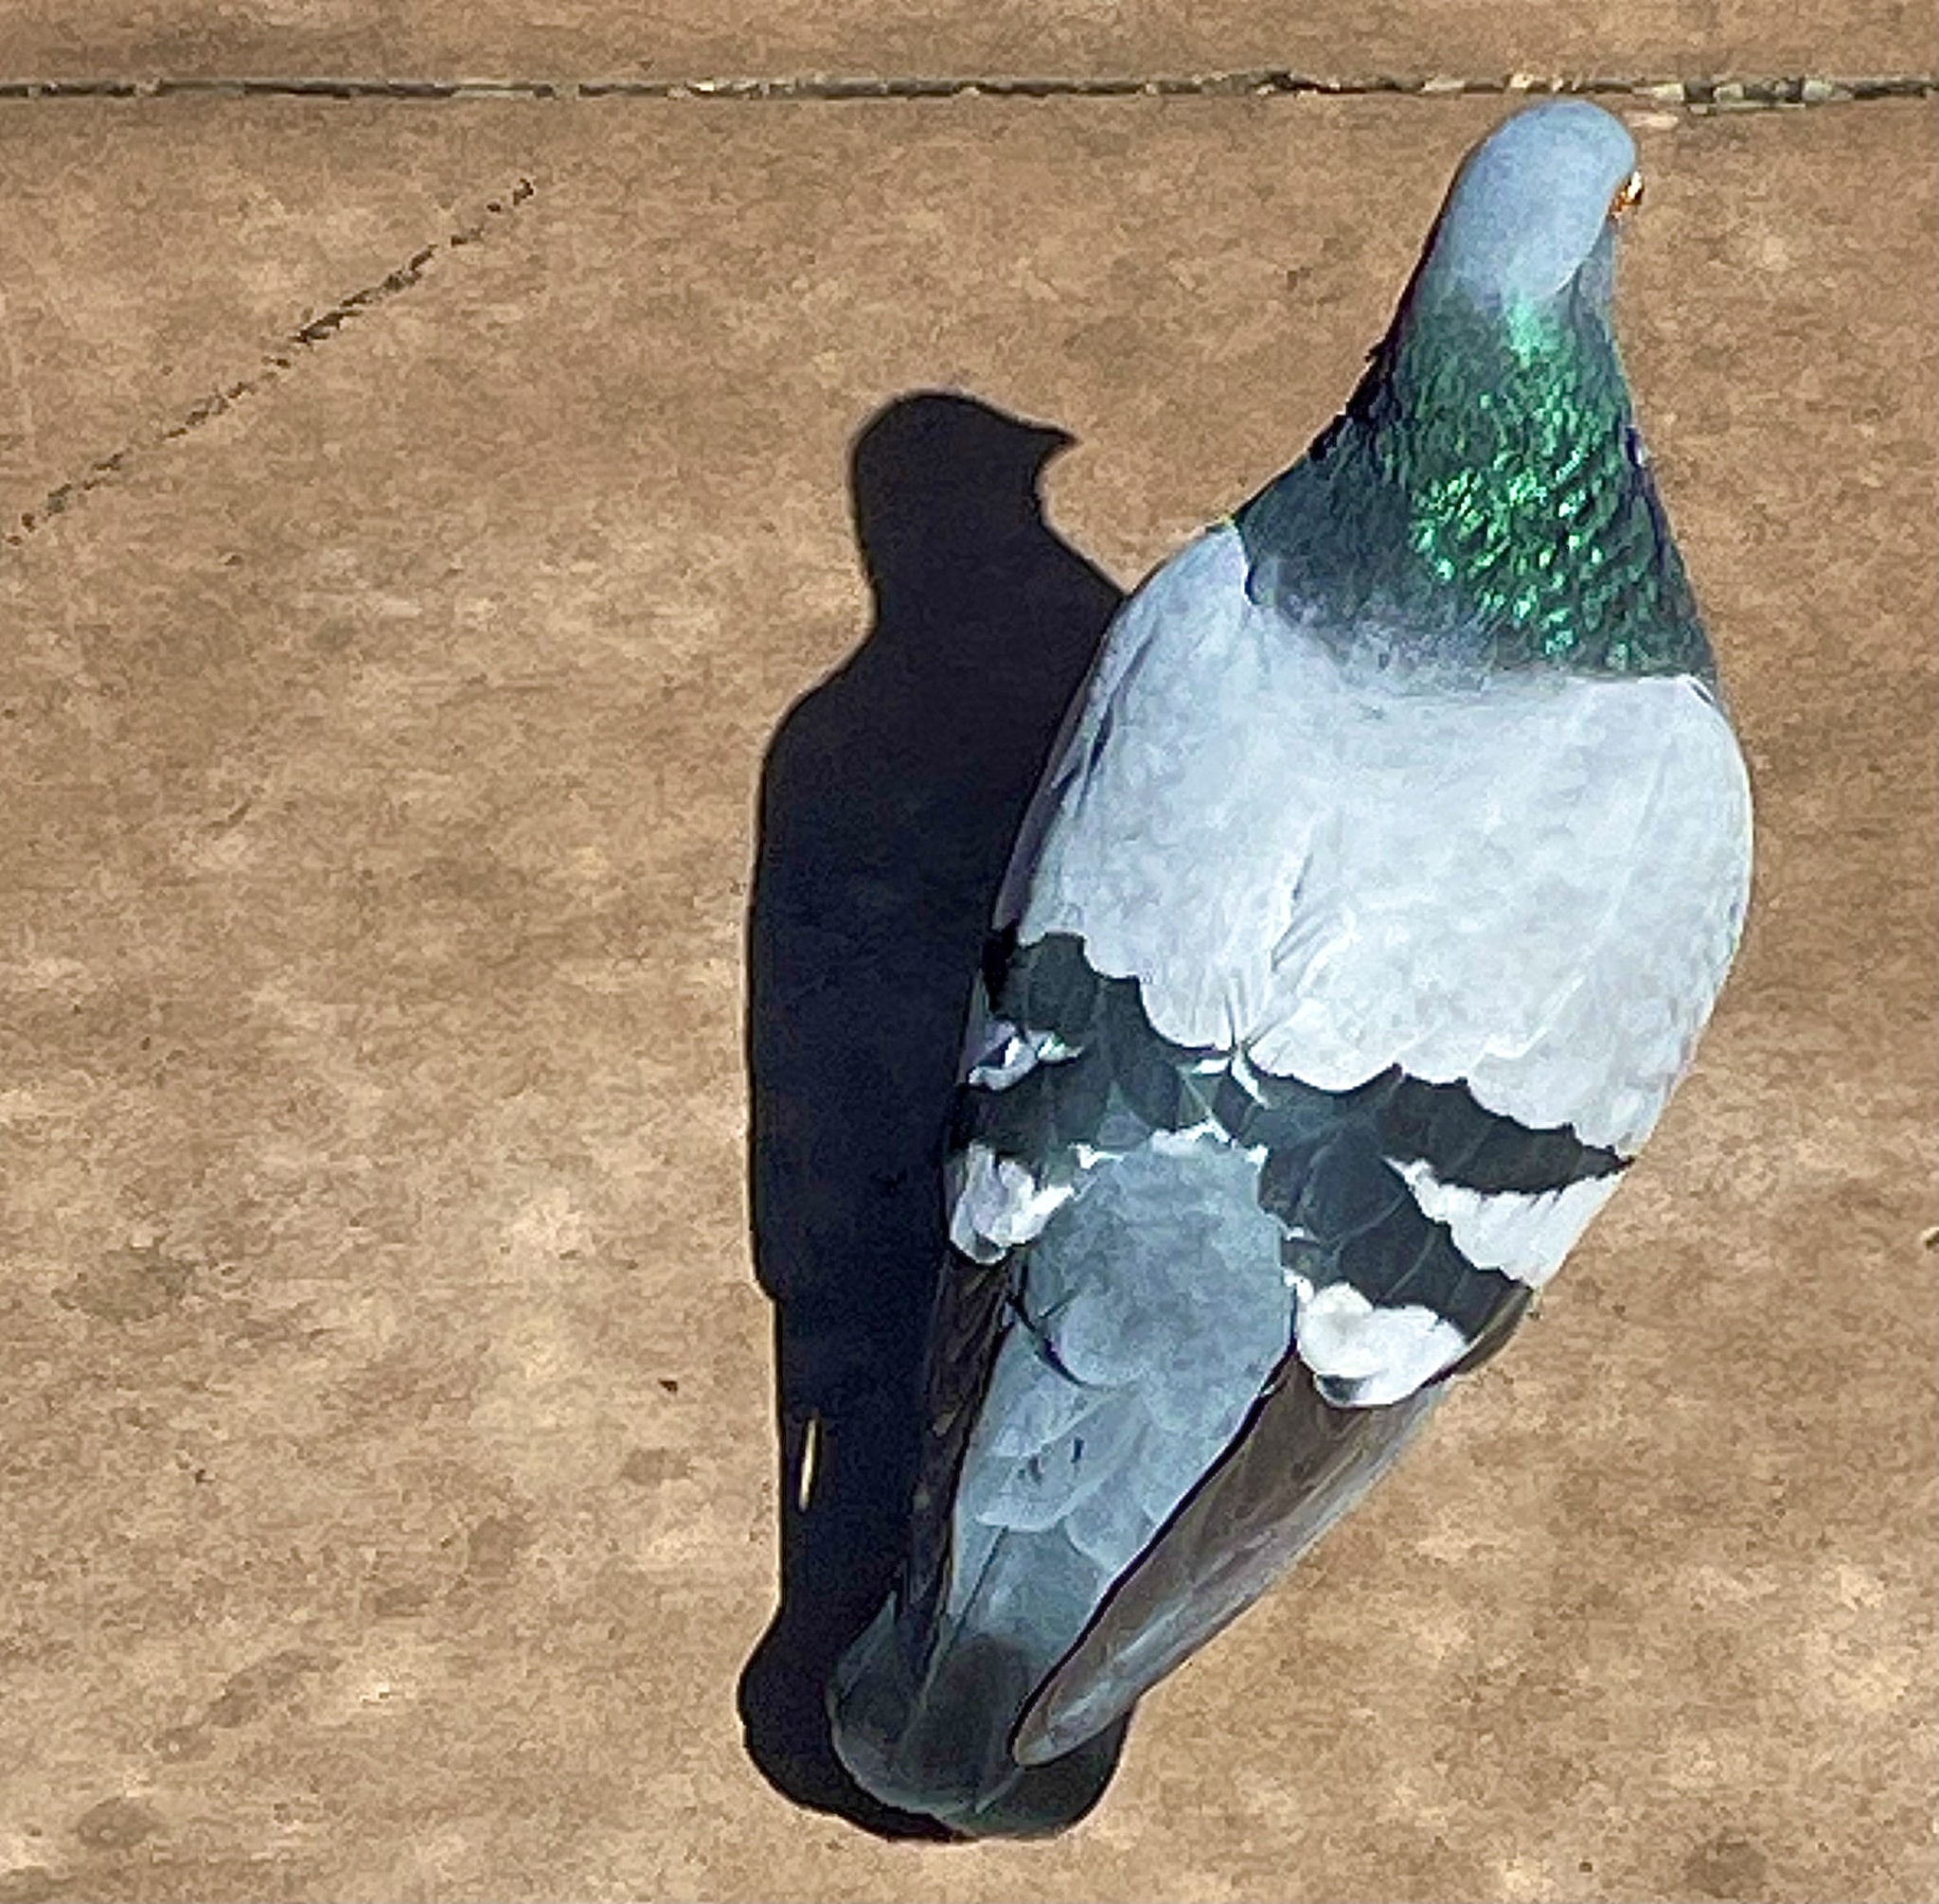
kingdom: Animalia
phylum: Chordata
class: Aves
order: Columbiformes
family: Columbidae
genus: Columba
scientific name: Columba livia
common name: Rock pigeon
